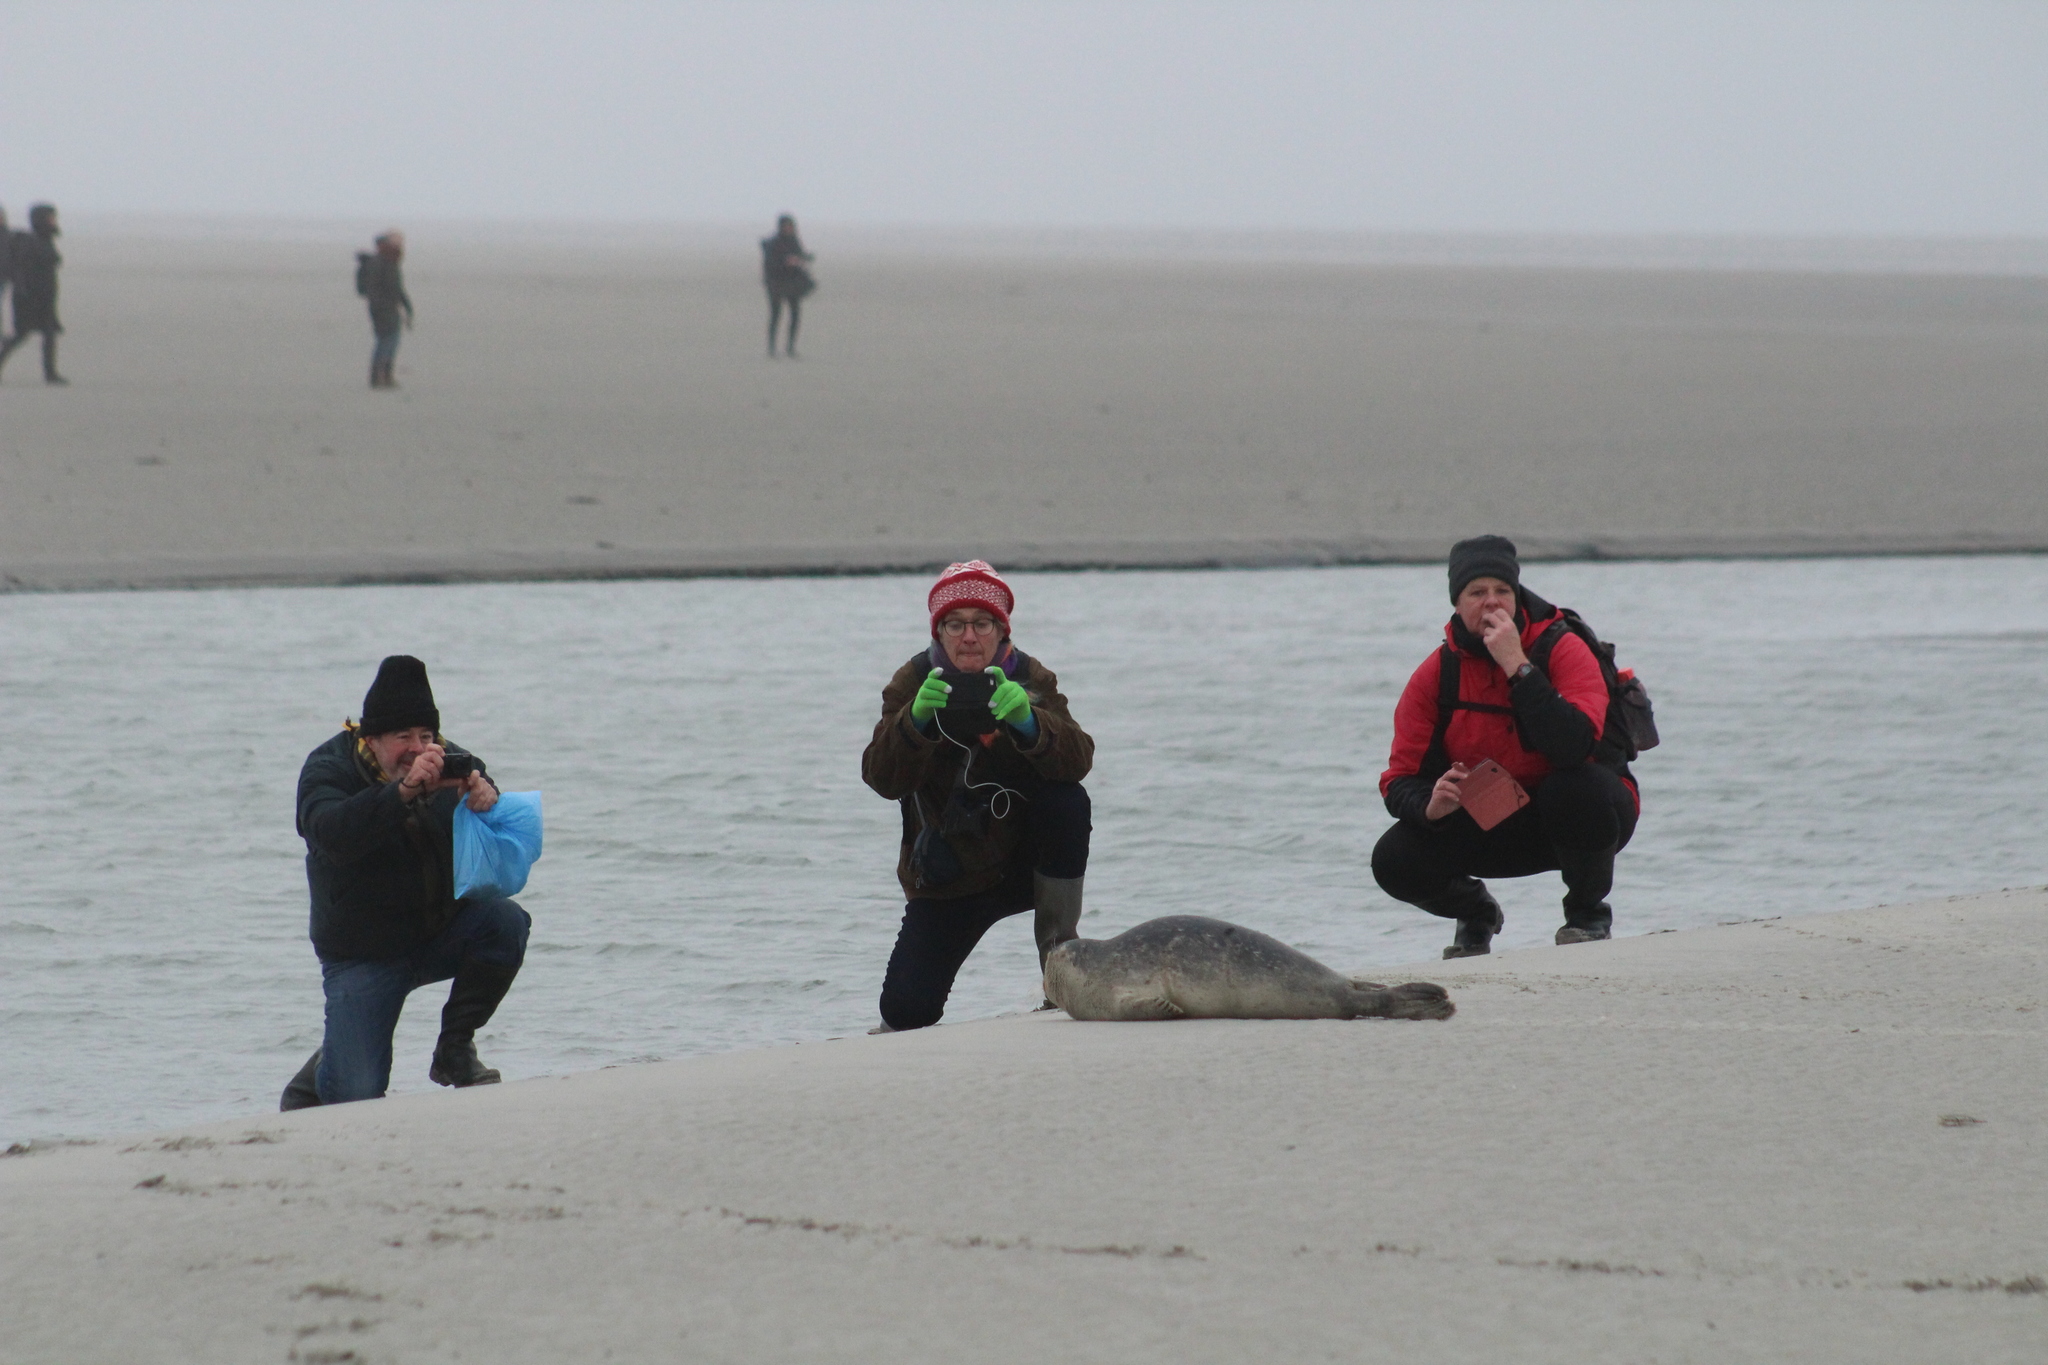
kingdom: Animalia
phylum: Chordata
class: Mammalia
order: Carnivora
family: Phocidae
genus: Phoca
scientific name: Phoca vitulina
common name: Harbor seal
